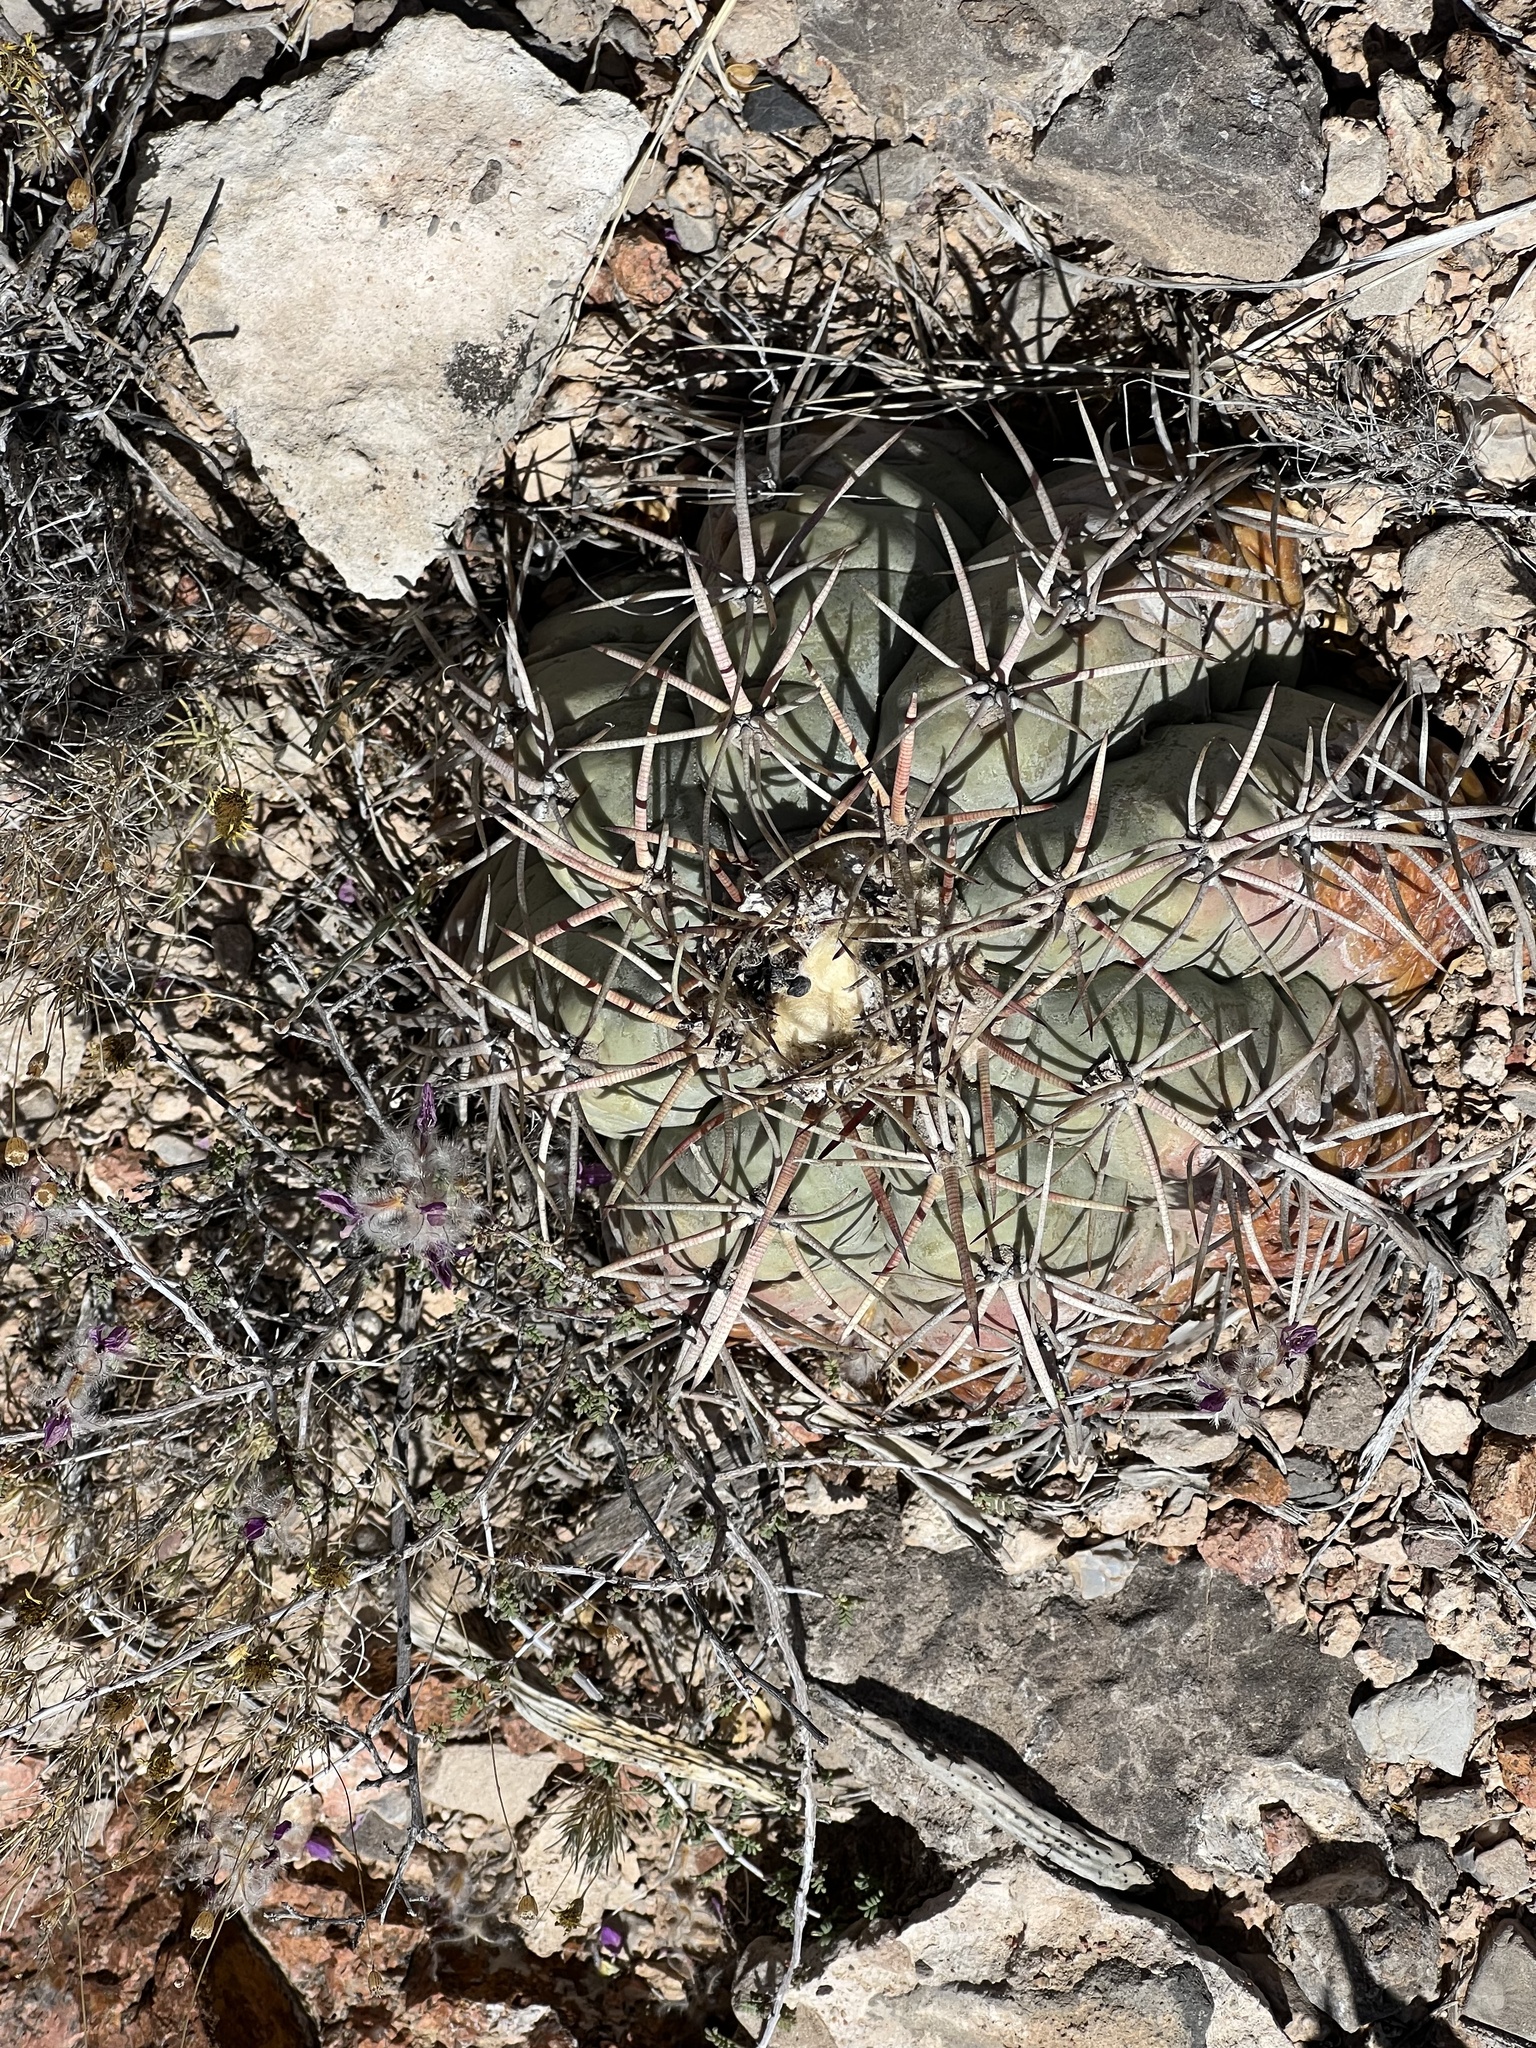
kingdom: Plantae
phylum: Tracheophyta
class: Magnoliopsida
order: Caryophyllales
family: Cactaceae
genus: Echinocactus
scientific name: Echinocactus horizonthalonius
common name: Devilshead
